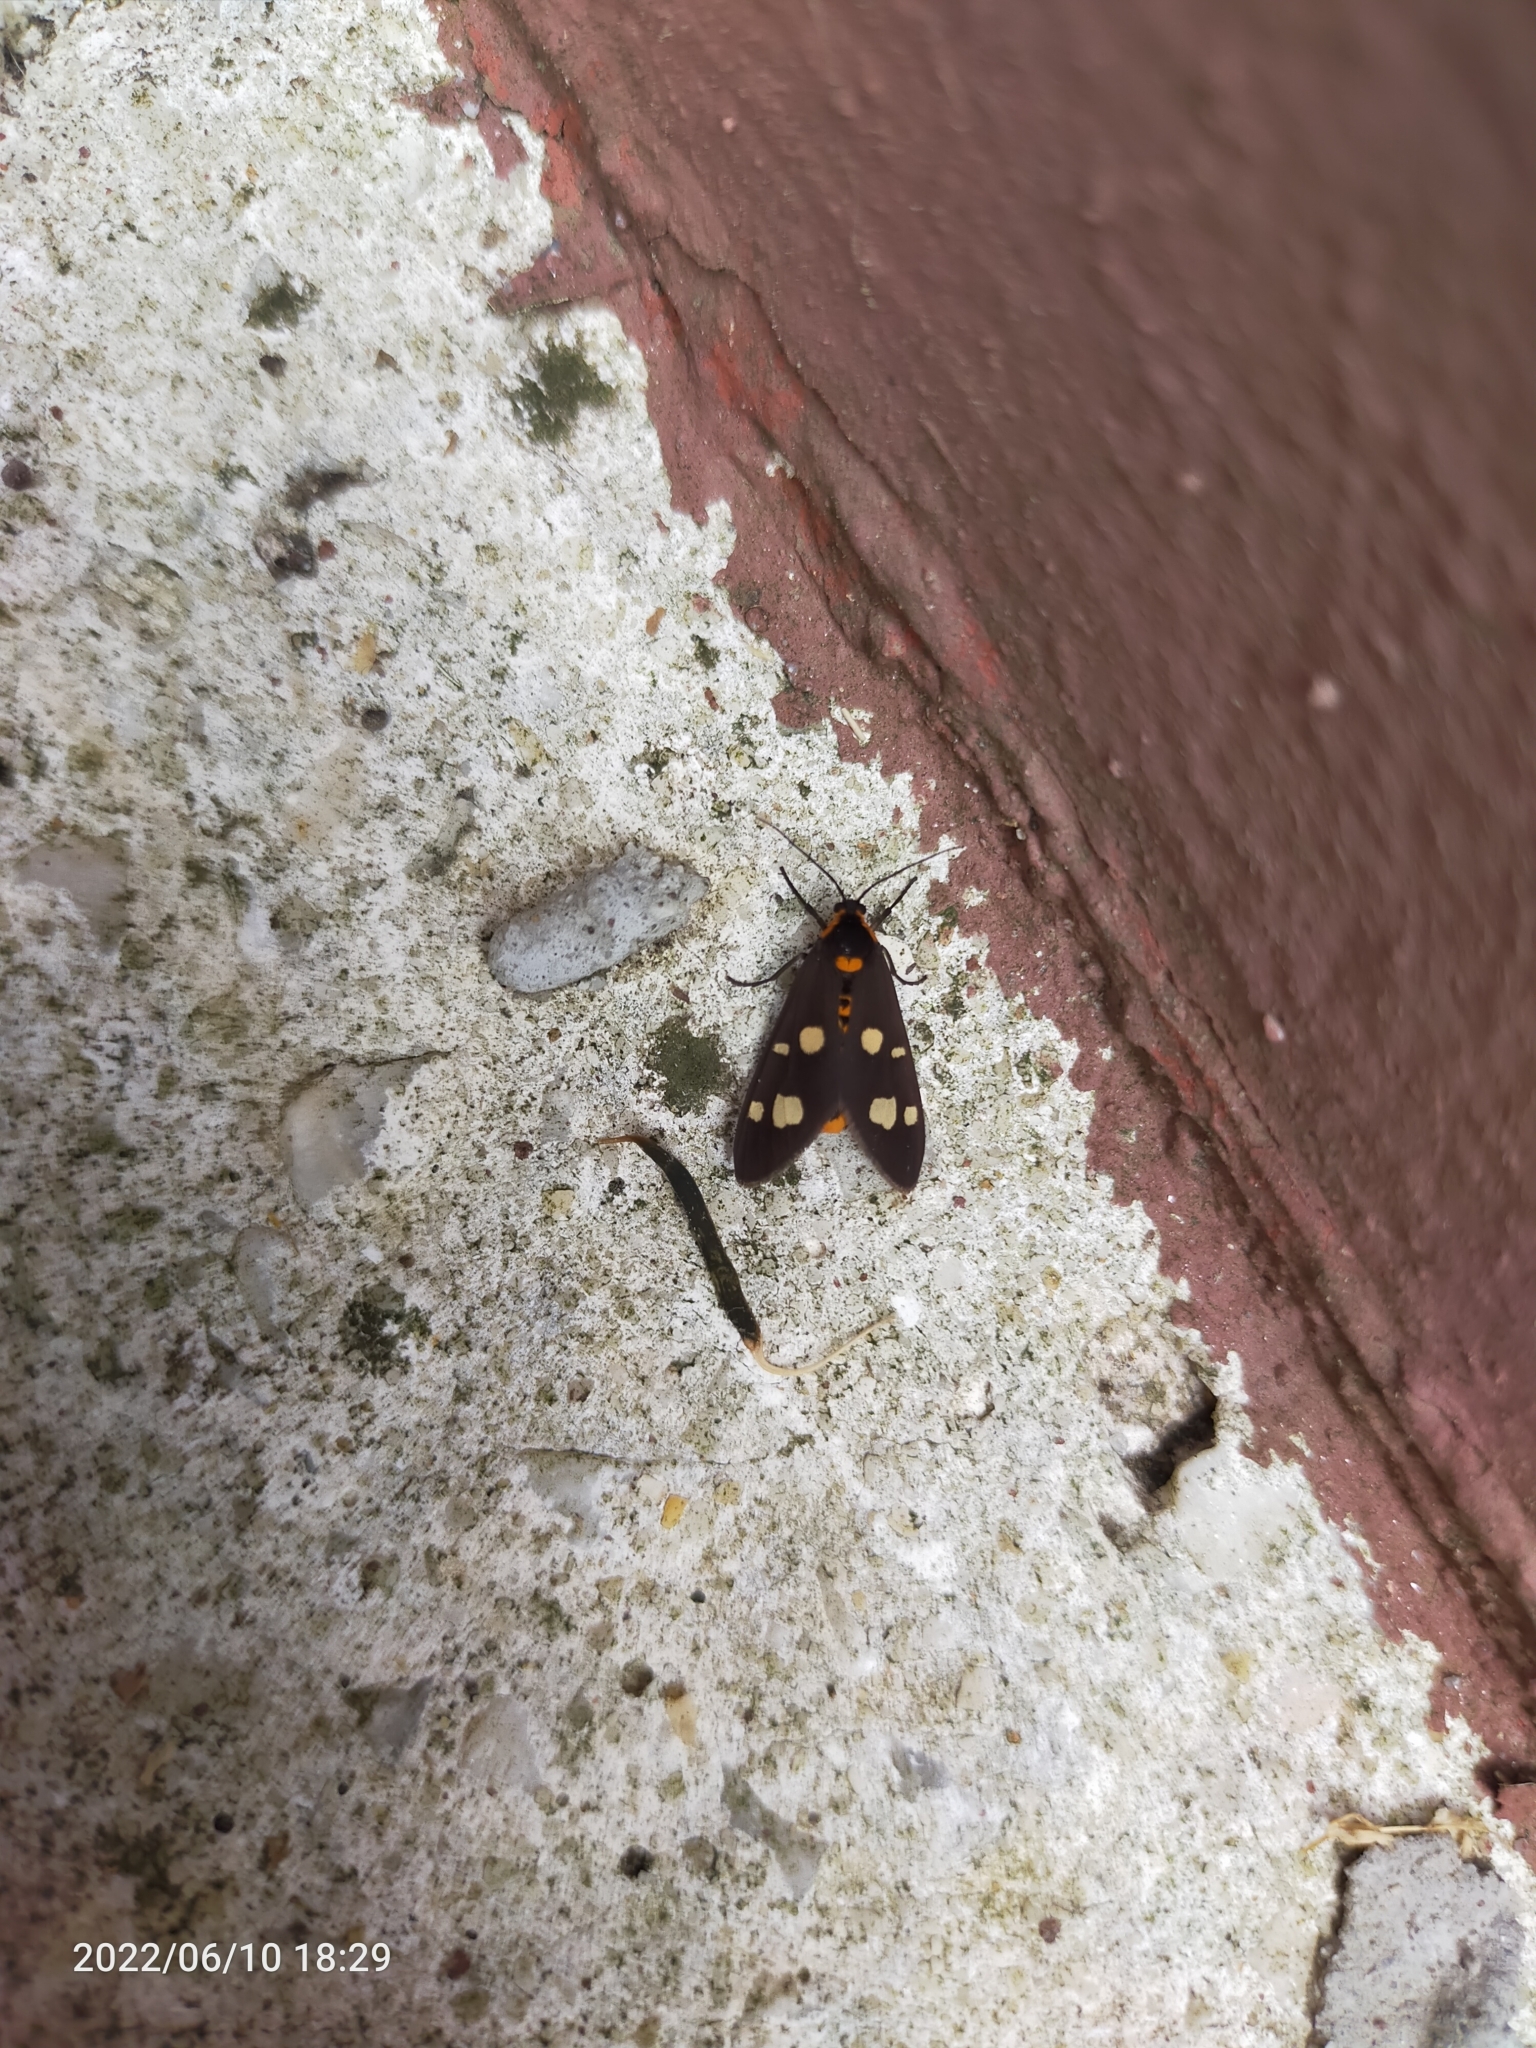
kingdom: Animalia
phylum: Arthropoda
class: Insecta
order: Lepidoptera
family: Erebidae
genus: Dysauxes
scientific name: Dysauxes punctata
